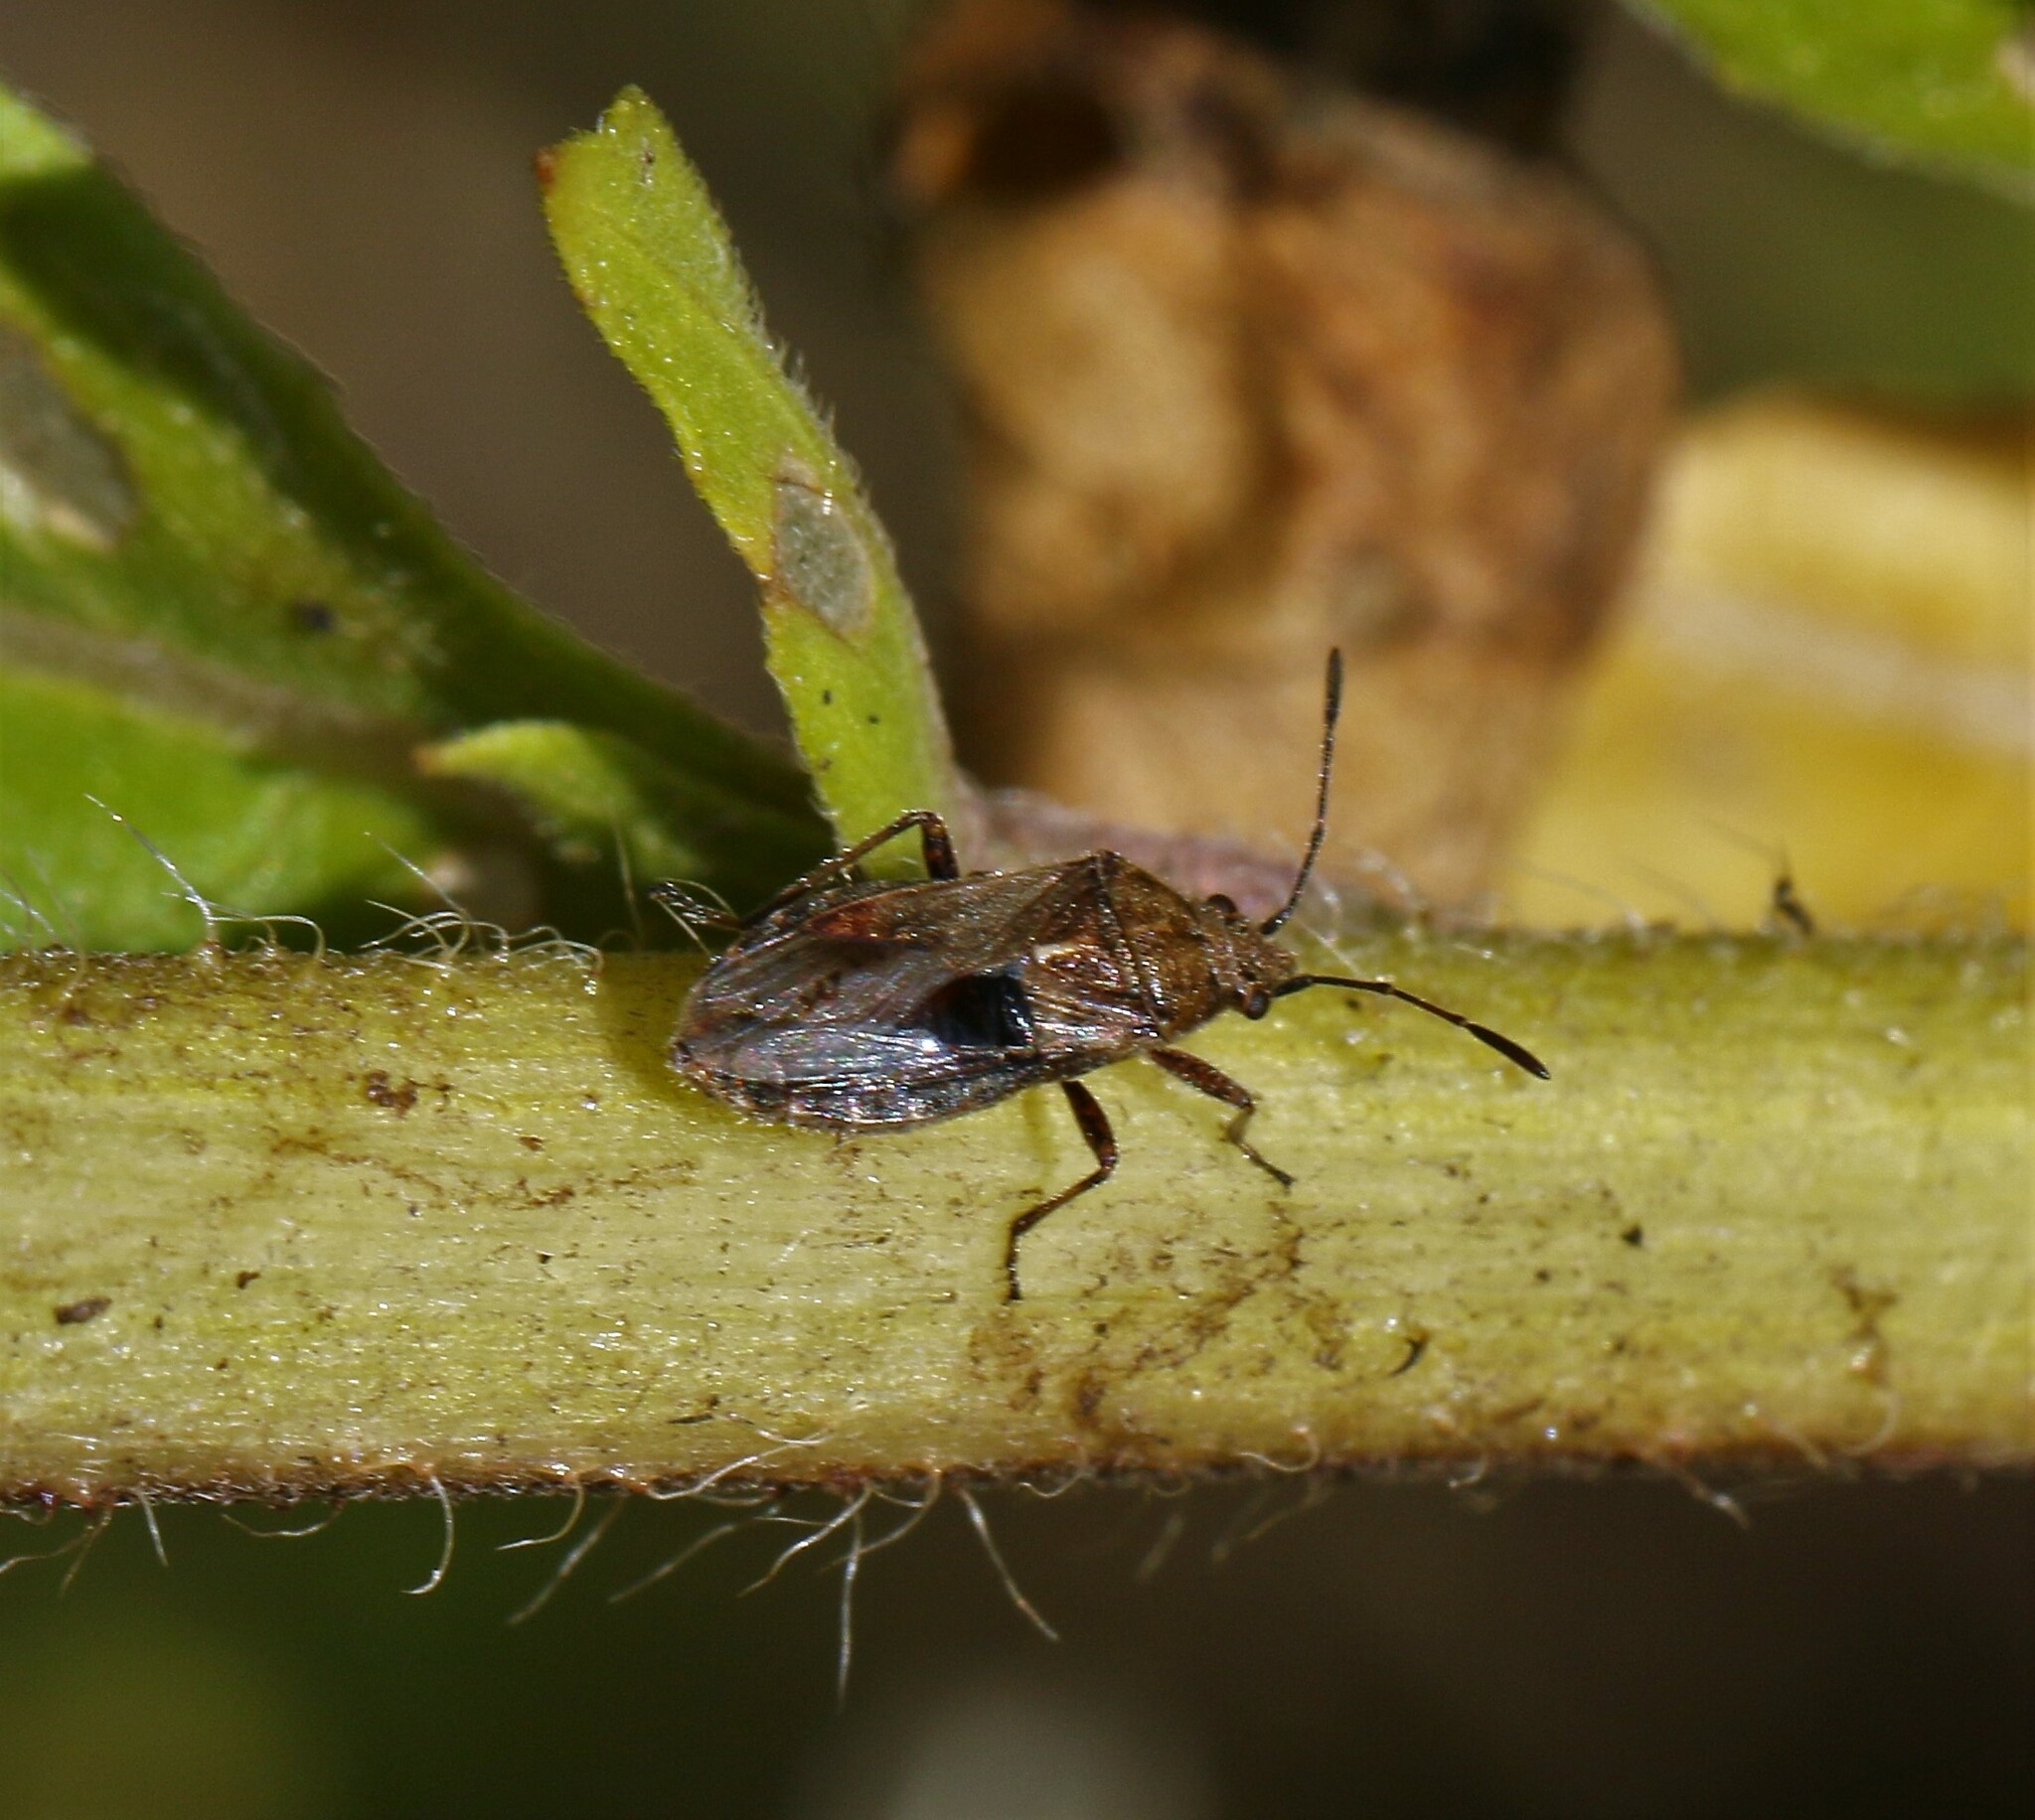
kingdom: Animalia
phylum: Arthropoda
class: Insecta
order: Hemiptera
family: Lygaeidae
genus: Neortholomus
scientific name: Neortholomus scolopax
